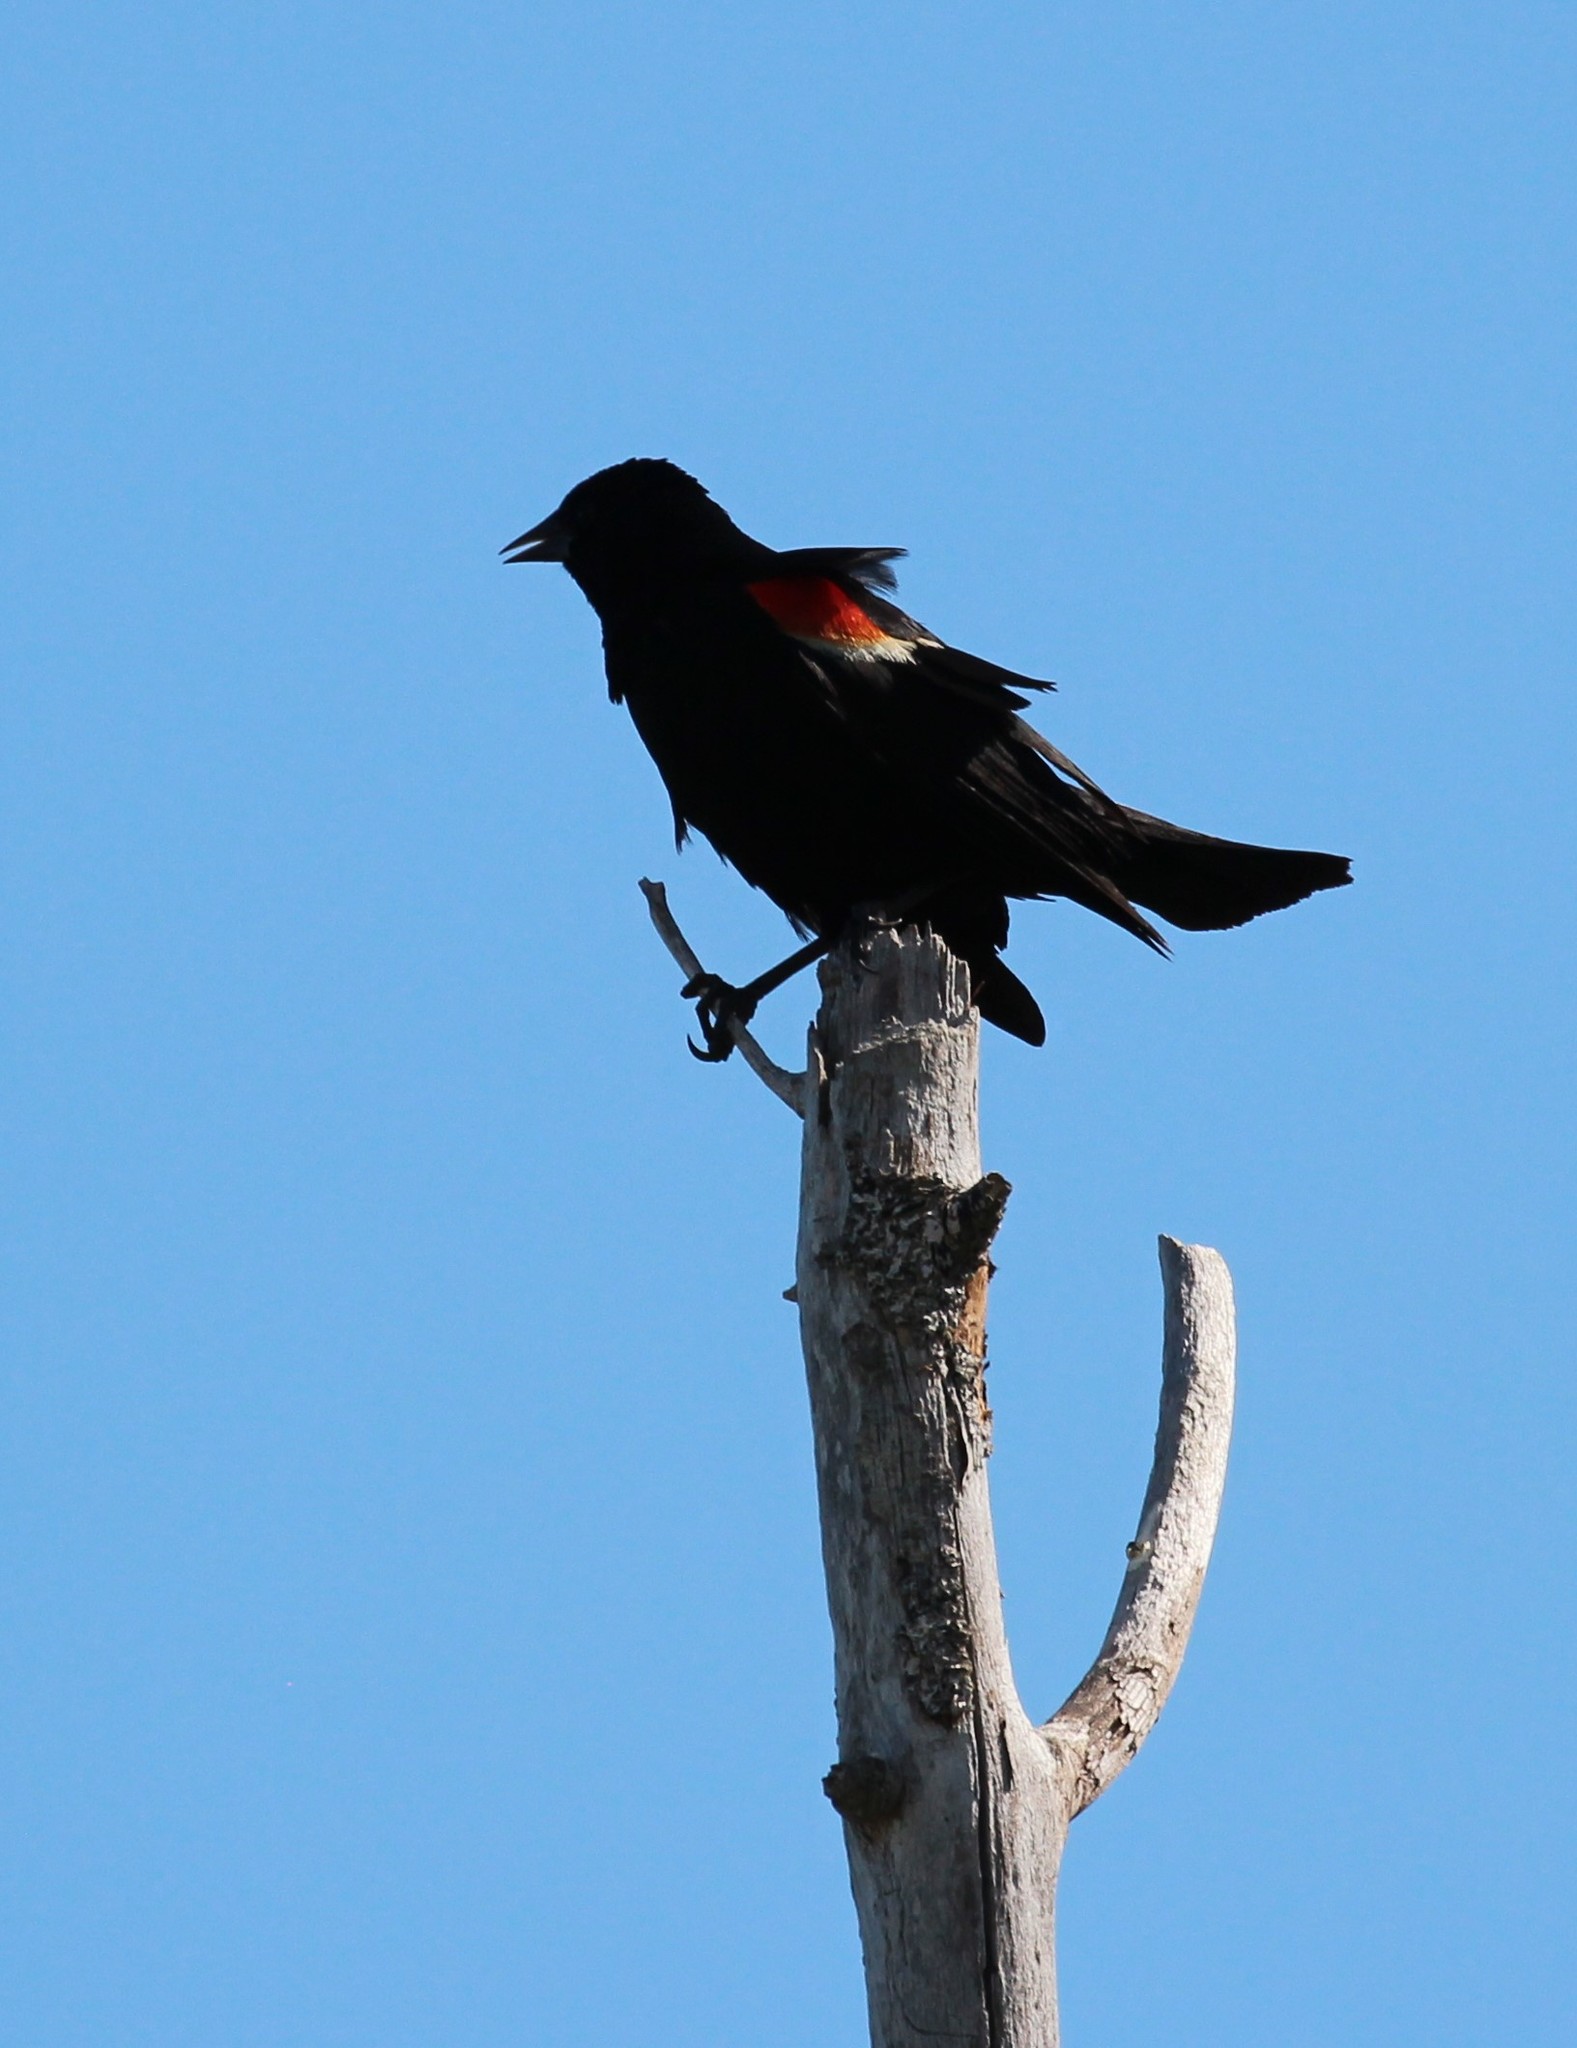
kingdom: Animalia
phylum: Chordata
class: Aves
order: Passeriformes
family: Icteridae
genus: Agelaius
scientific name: Agelaius phoeniceus
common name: Red-winged blackbird
